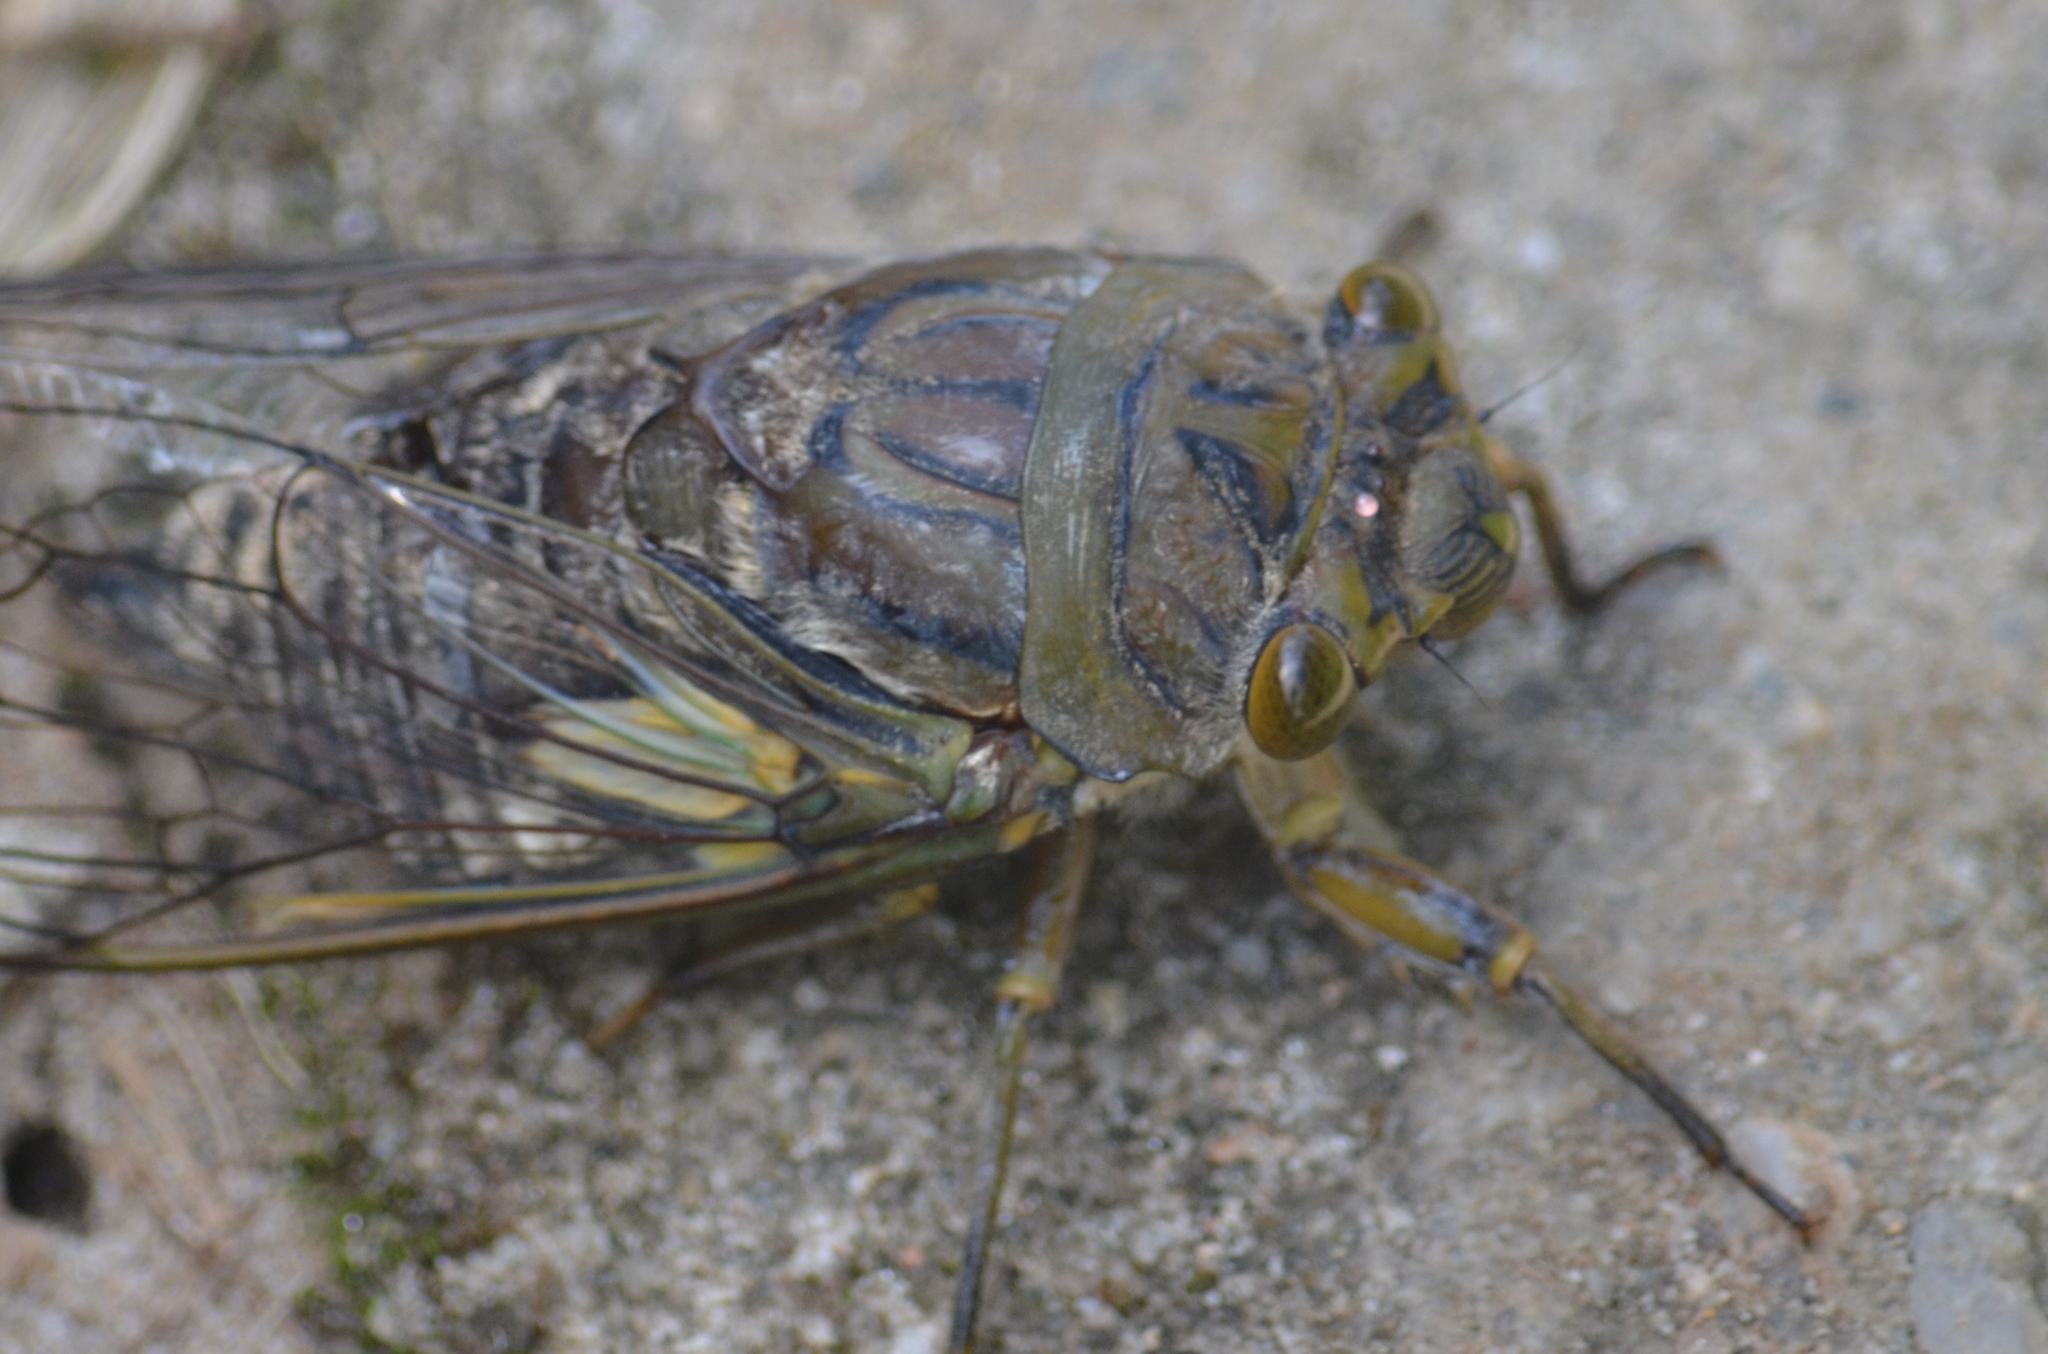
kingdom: Animalia
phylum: Arthropoda
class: Insecta
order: Hemiptera
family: Cicadidae
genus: Quesada
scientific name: Quesada gigas
